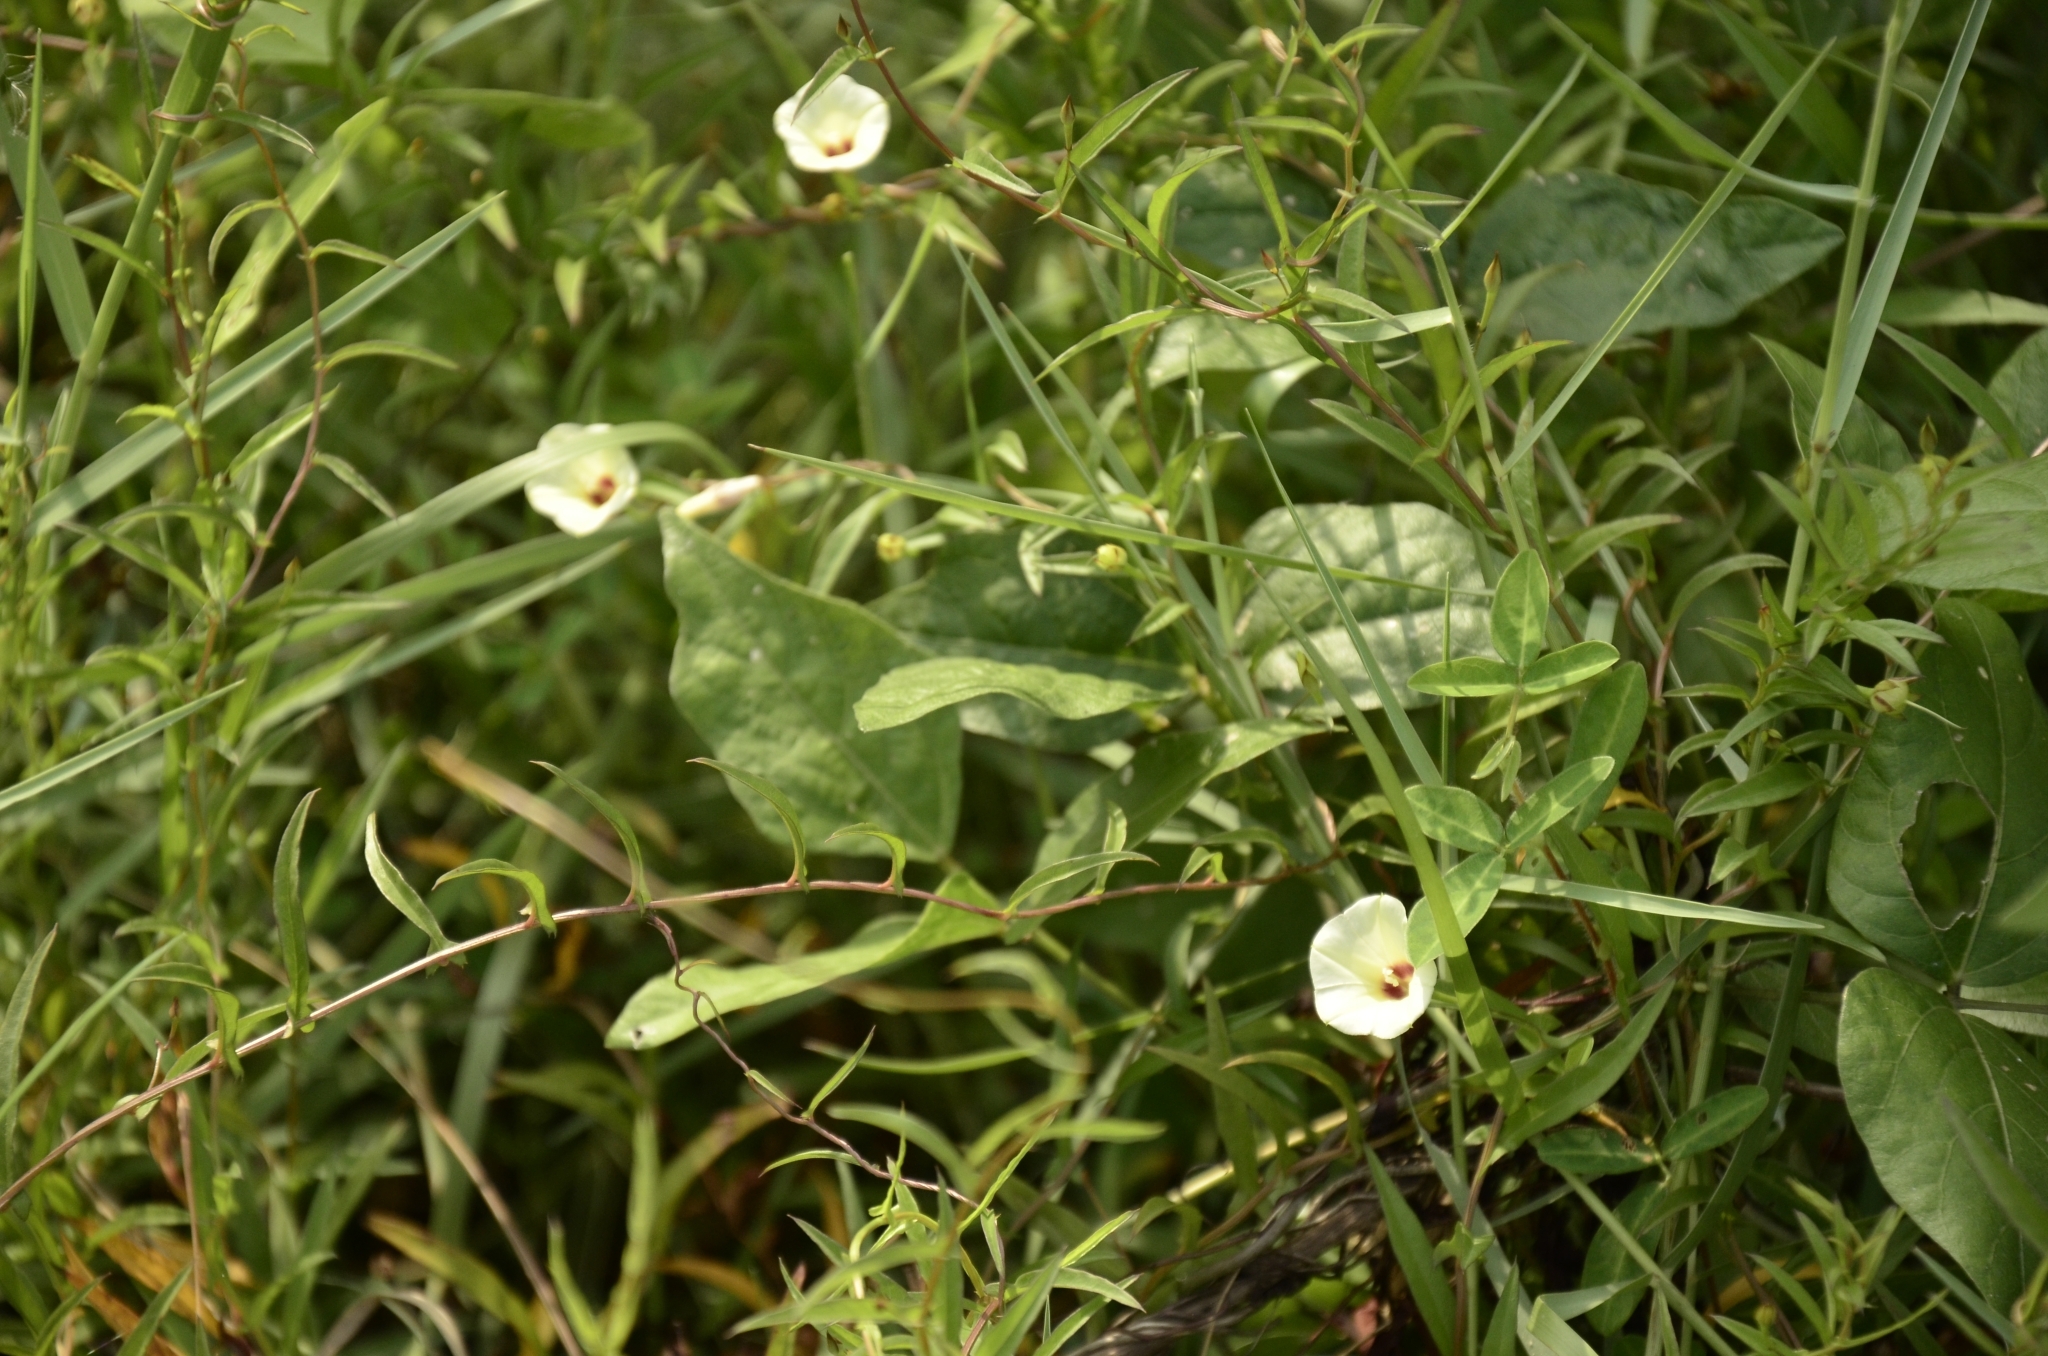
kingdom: Plantae
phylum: Tracheophyta
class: Magnoliopsida
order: Solanales
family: Convolvulaceae
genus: Xenostegia
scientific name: Xenostegia tridentata
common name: African morningvine
